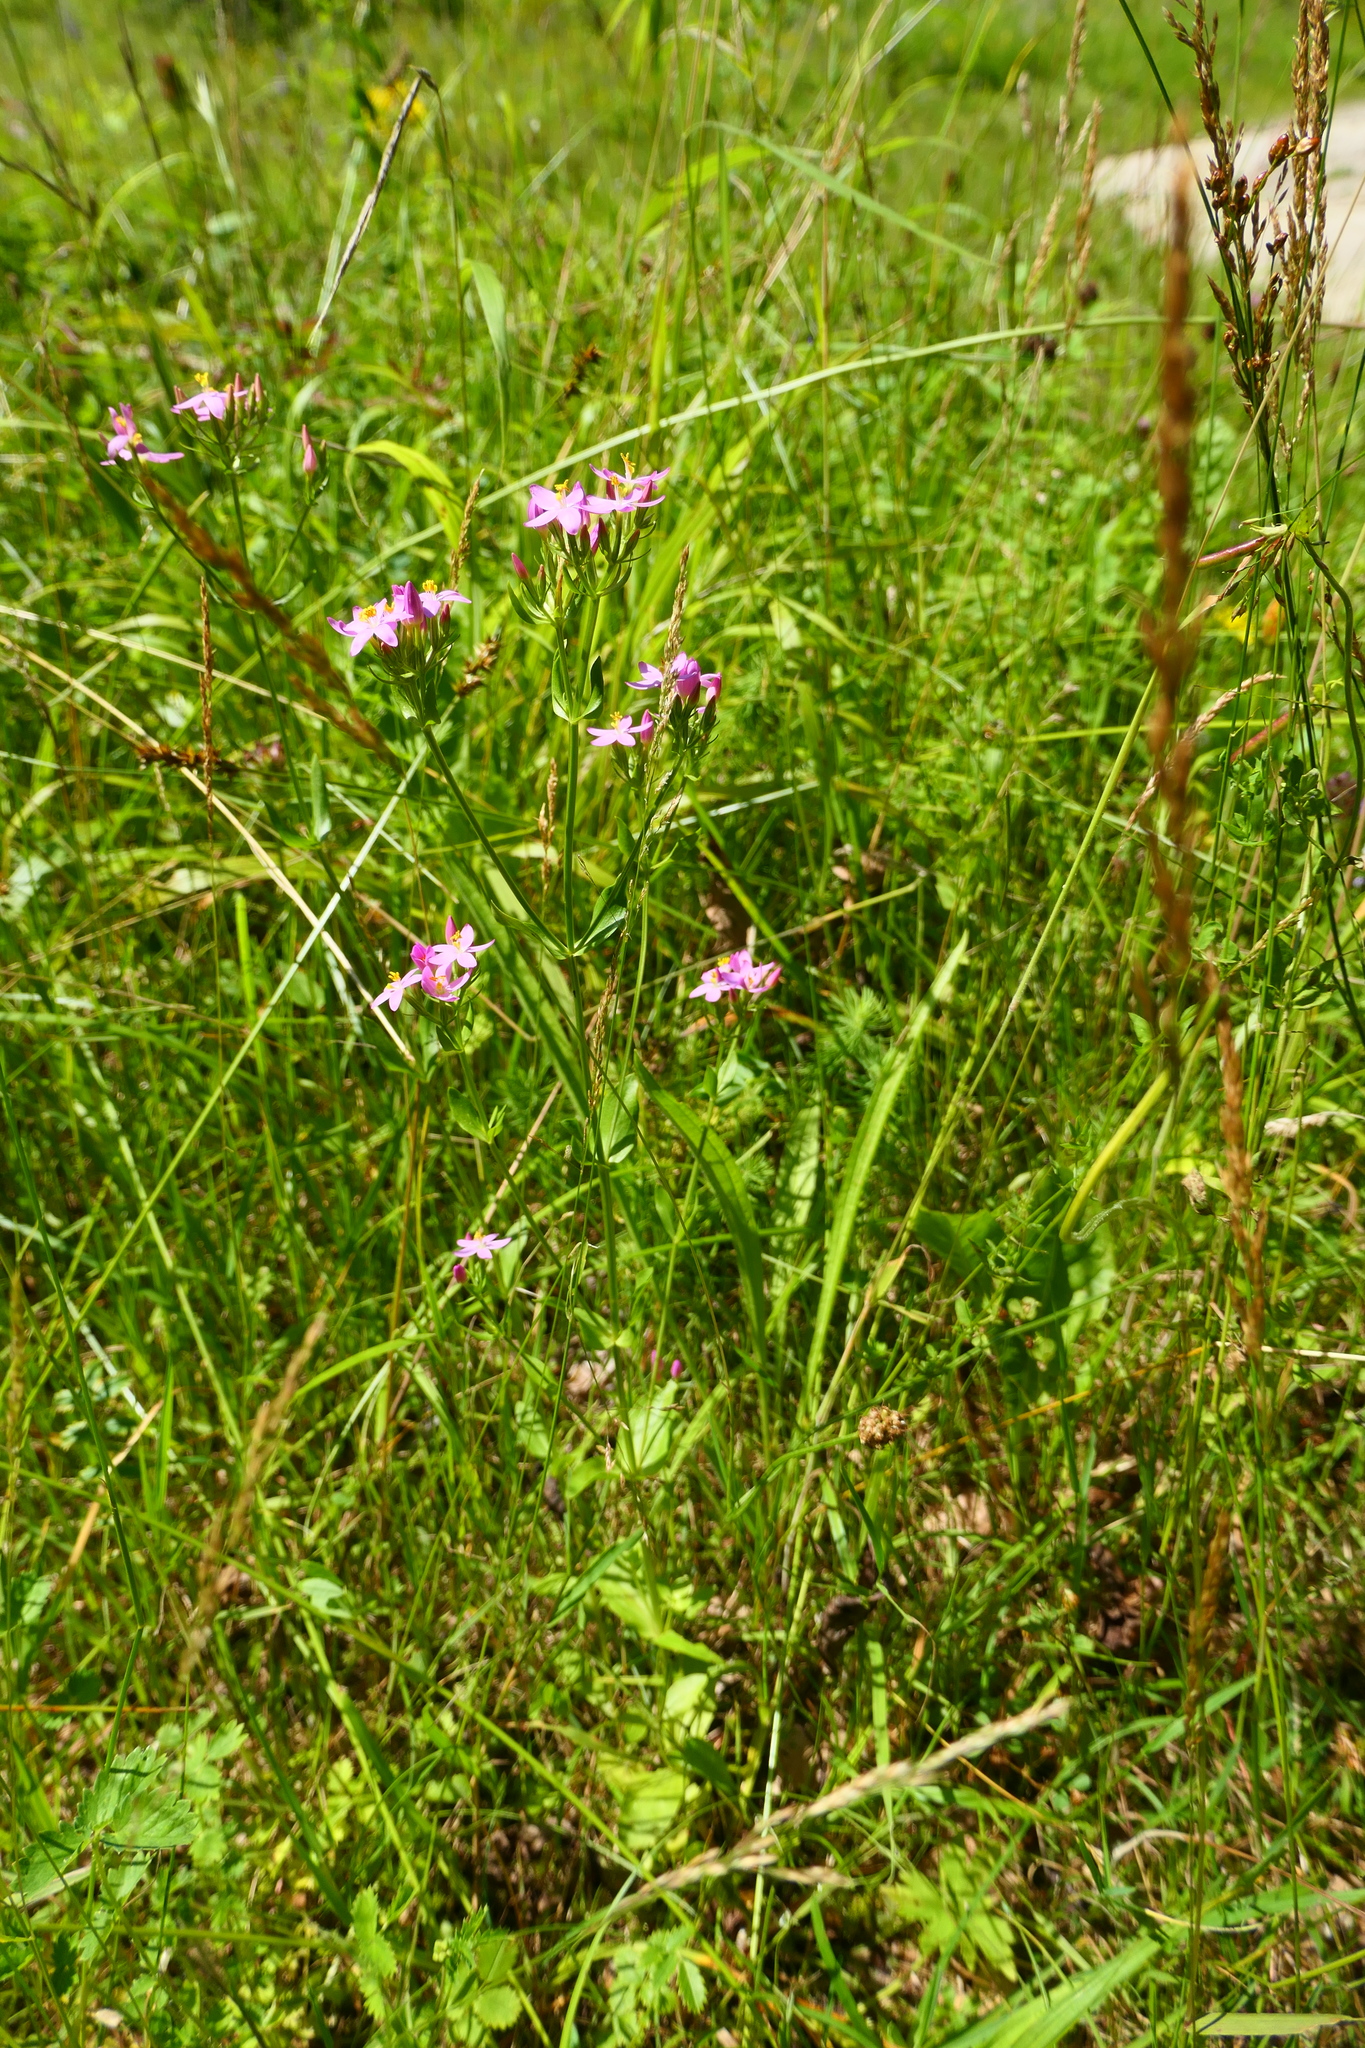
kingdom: Plantae
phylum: Tracheophyta
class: Magnoliopsida
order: Gentianales
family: Gentianaceae
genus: Centaurium
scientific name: Centaurium erythraea
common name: Common centaury
